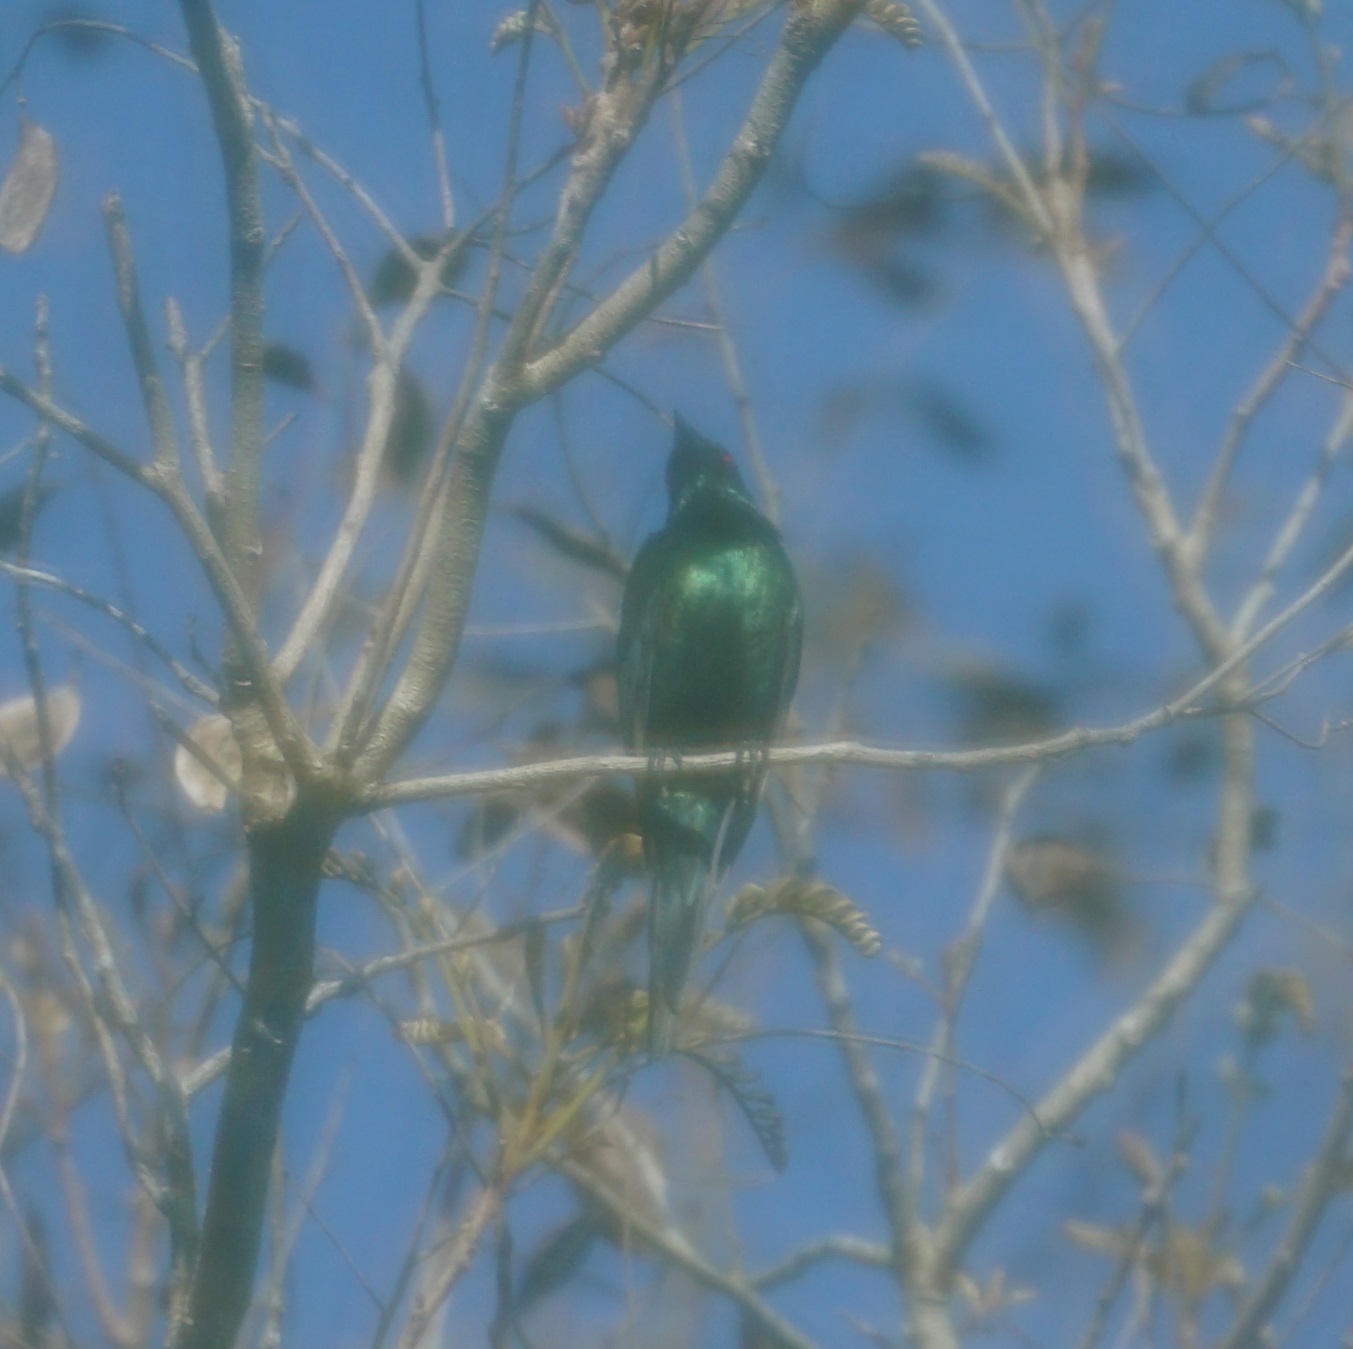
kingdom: Animalia
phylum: Chordata
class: Aves
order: Passeriformes
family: Sturnidae
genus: Aplonis
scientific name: Aplonis metallica
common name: Metallic starling
